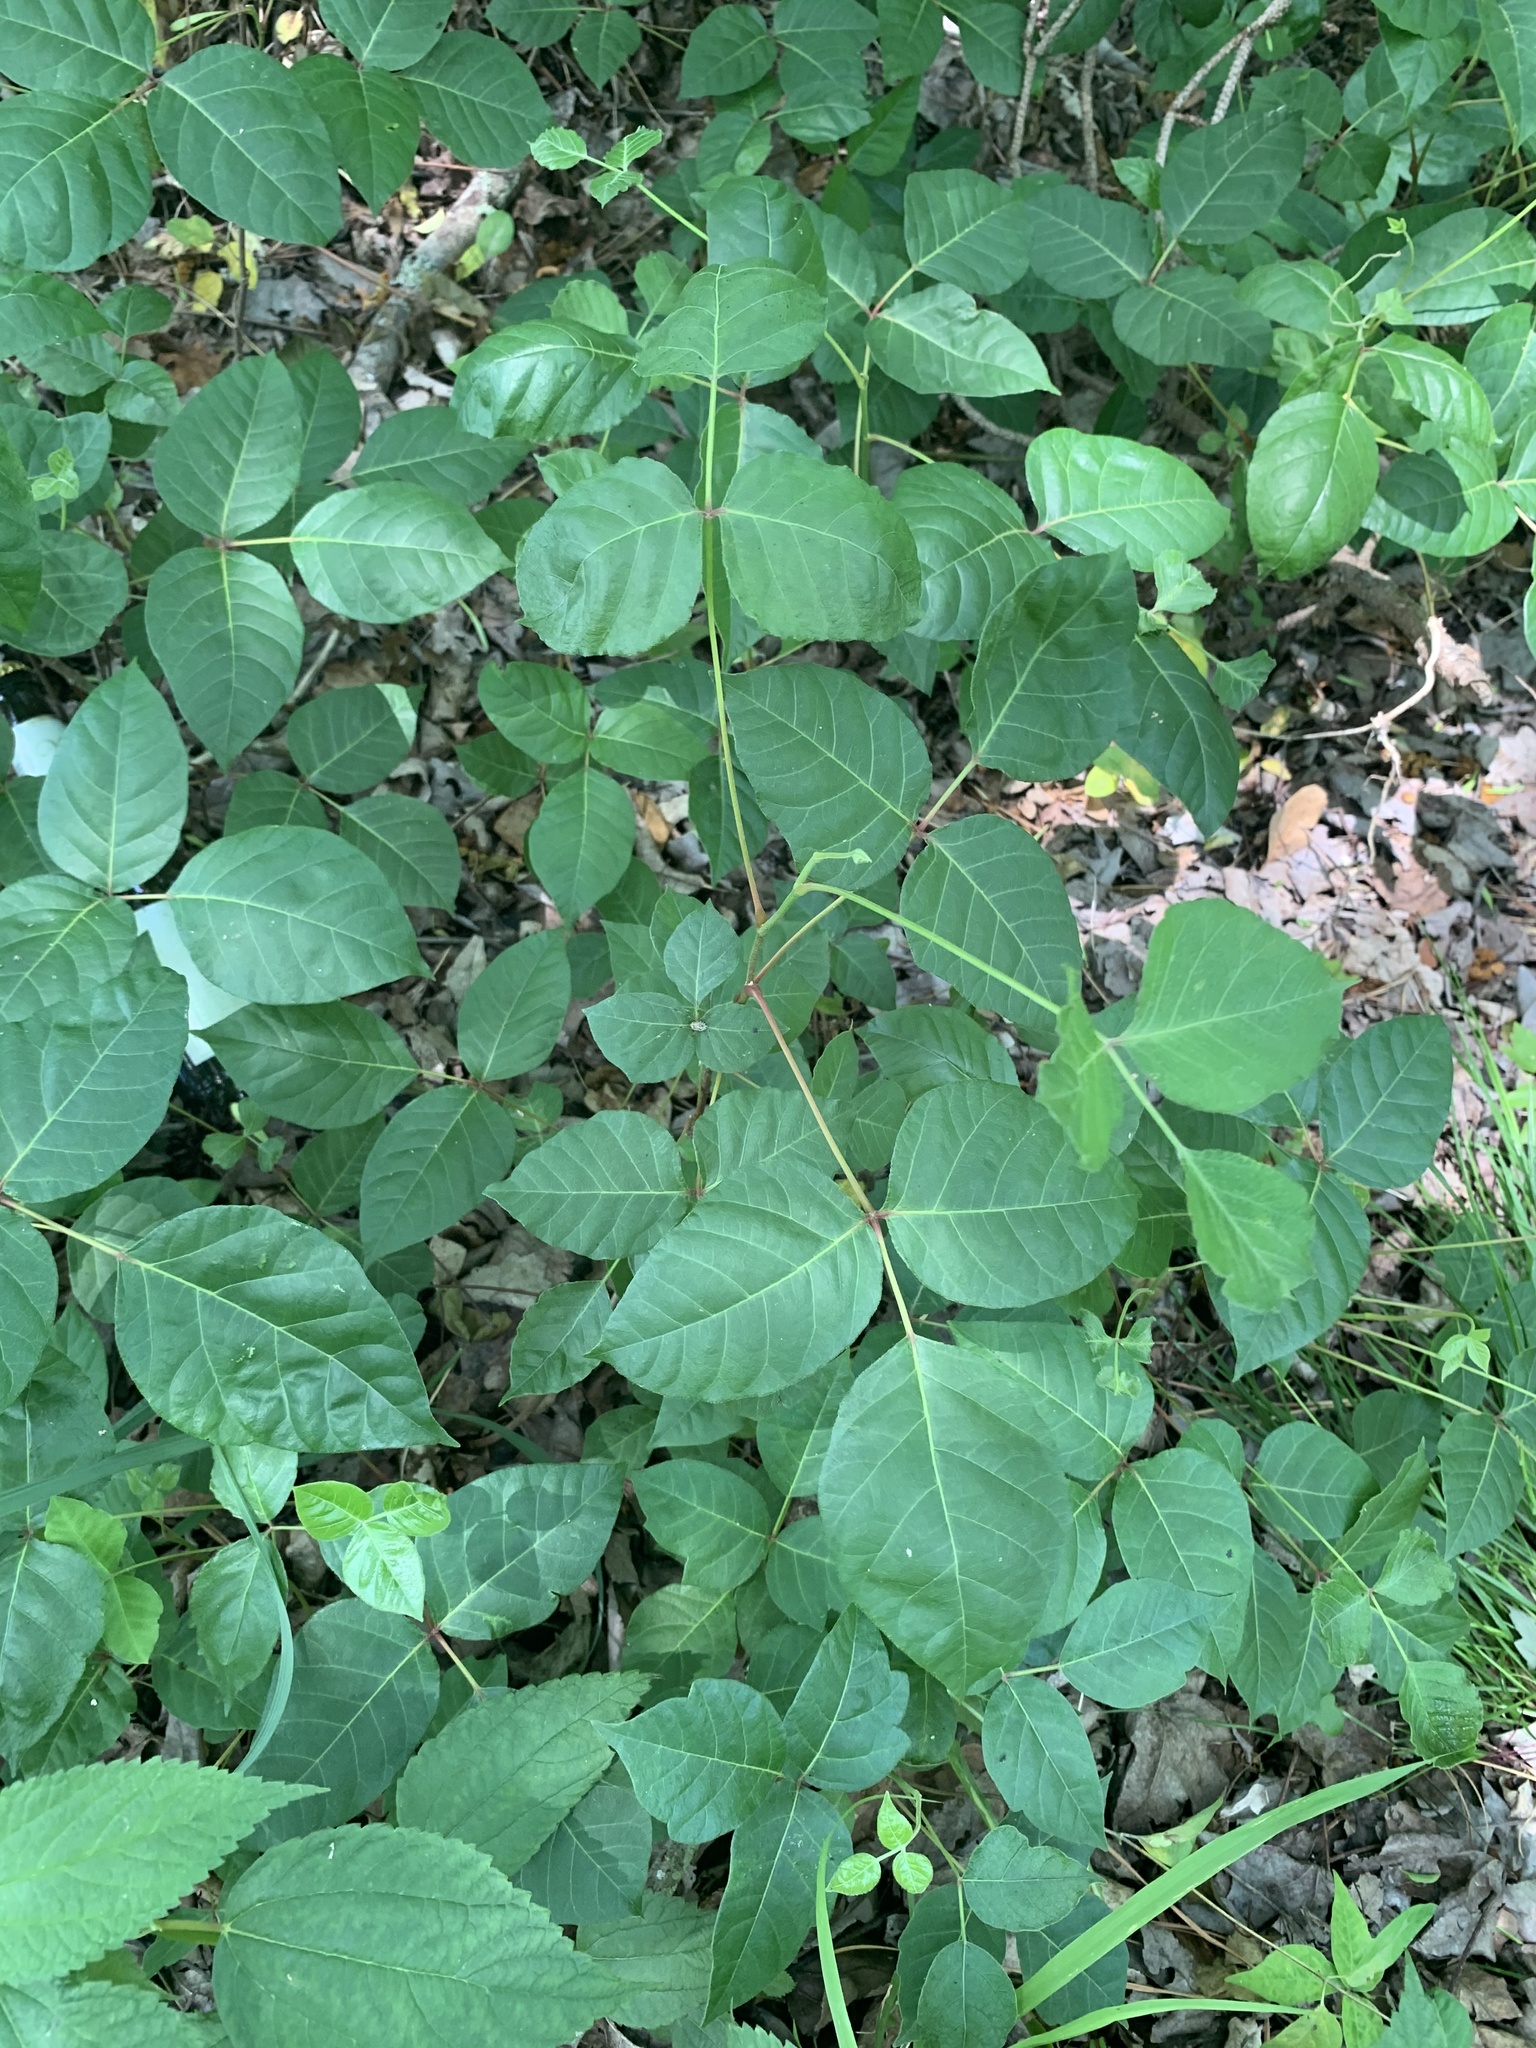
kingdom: Plantae
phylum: Tracheophyta
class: Magnoliopsida
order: Sapindales
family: Anacardiaceae
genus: Toxicodendron
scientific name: Toxicodendron radicans
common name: Poison ivy
